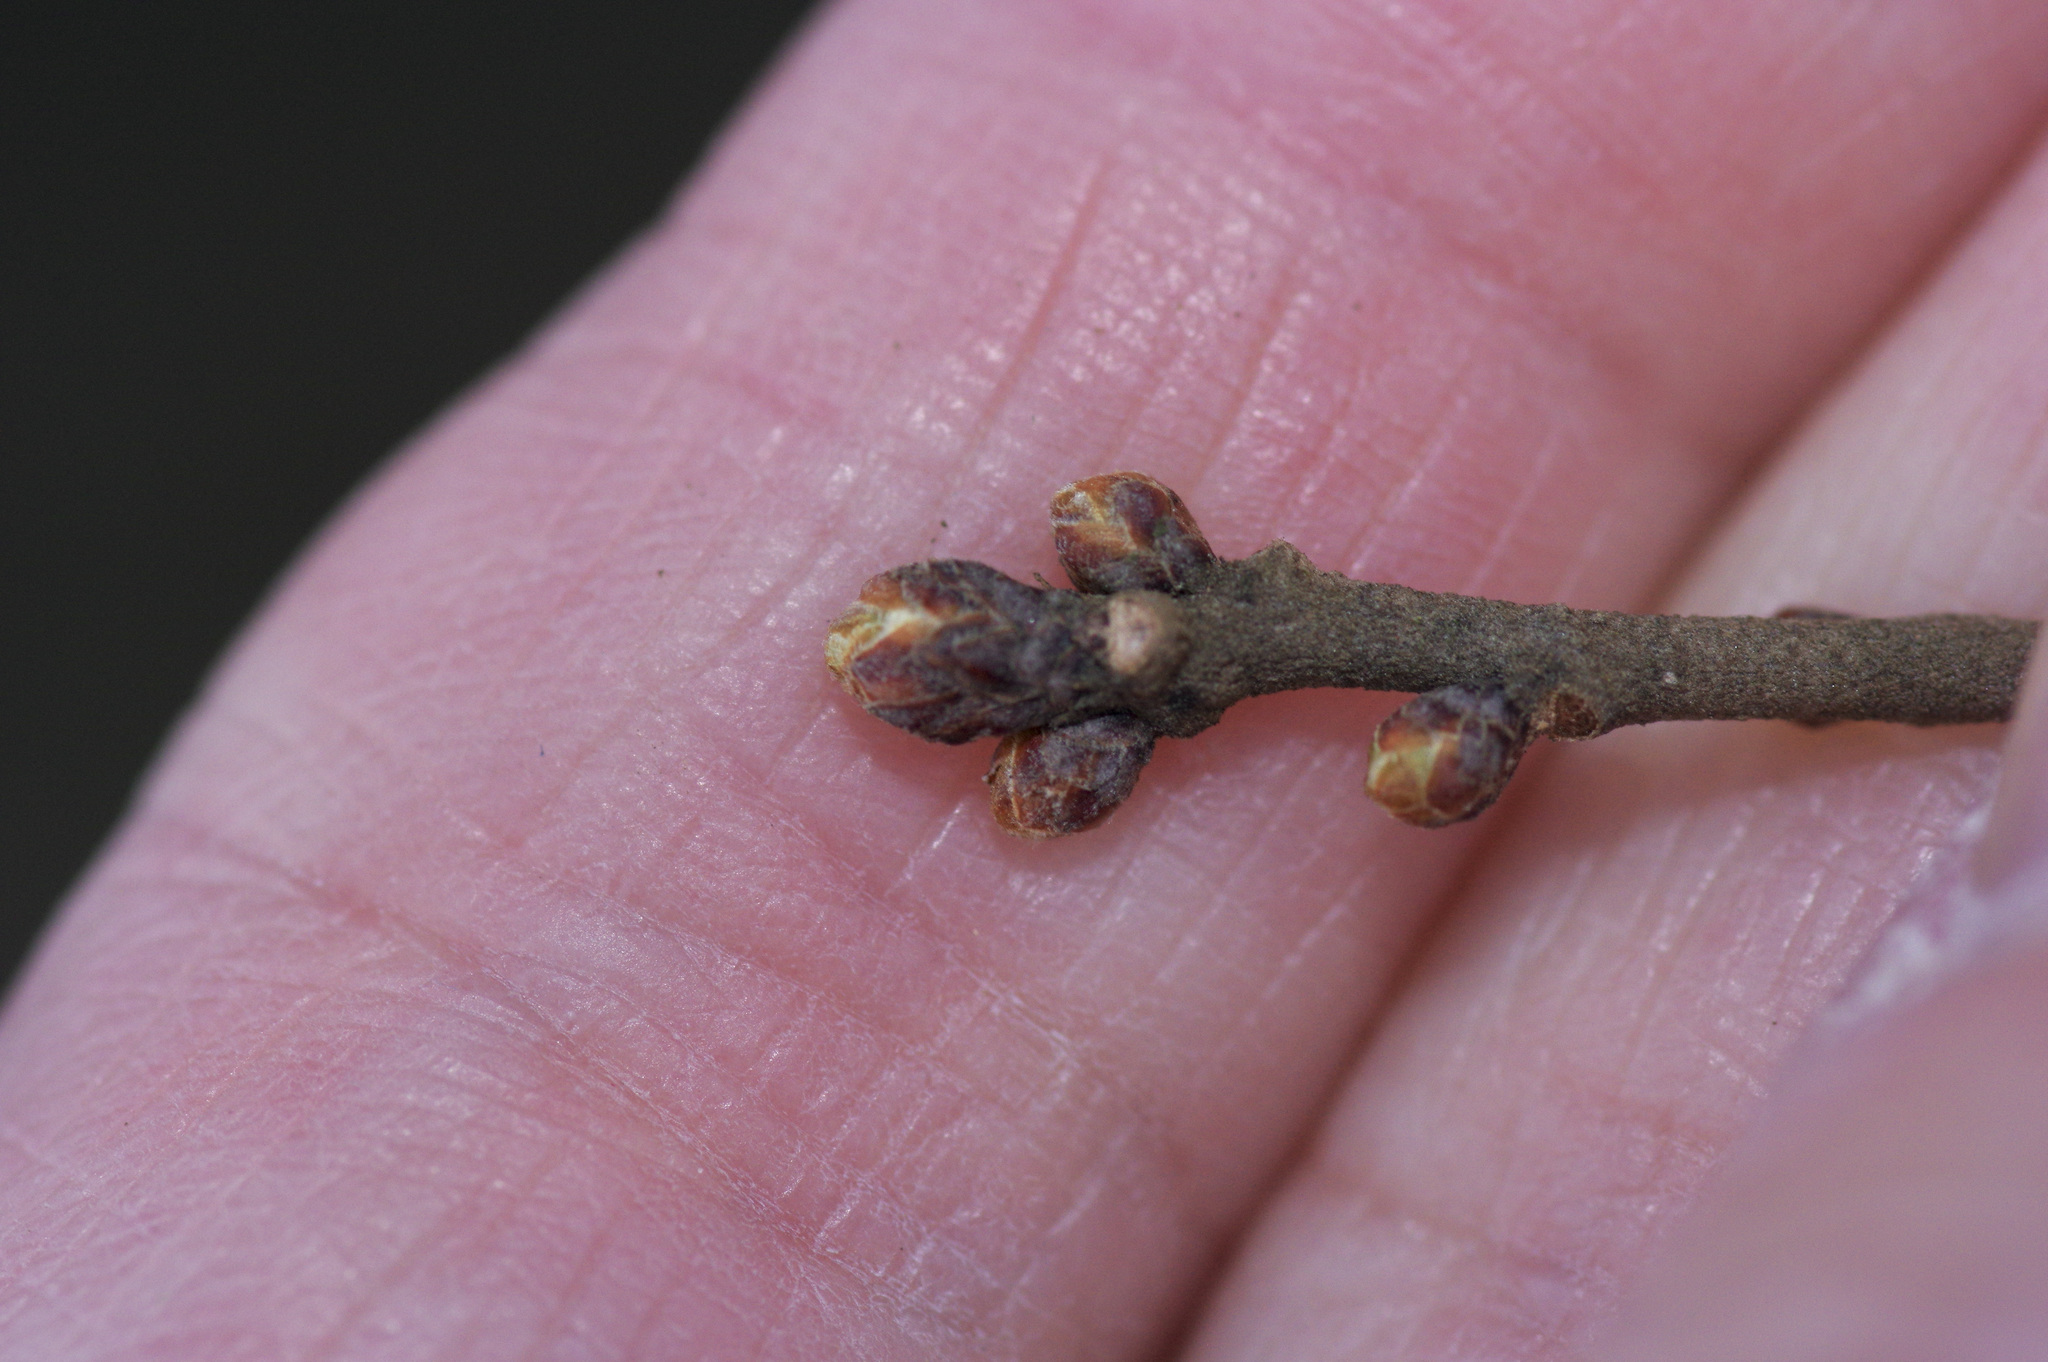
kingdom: Animalia
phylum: Arthropoda
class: Insecta
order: Hymenoptera
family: Cynipidae
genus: Andricus
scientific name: Andricus quercusfoliatus
